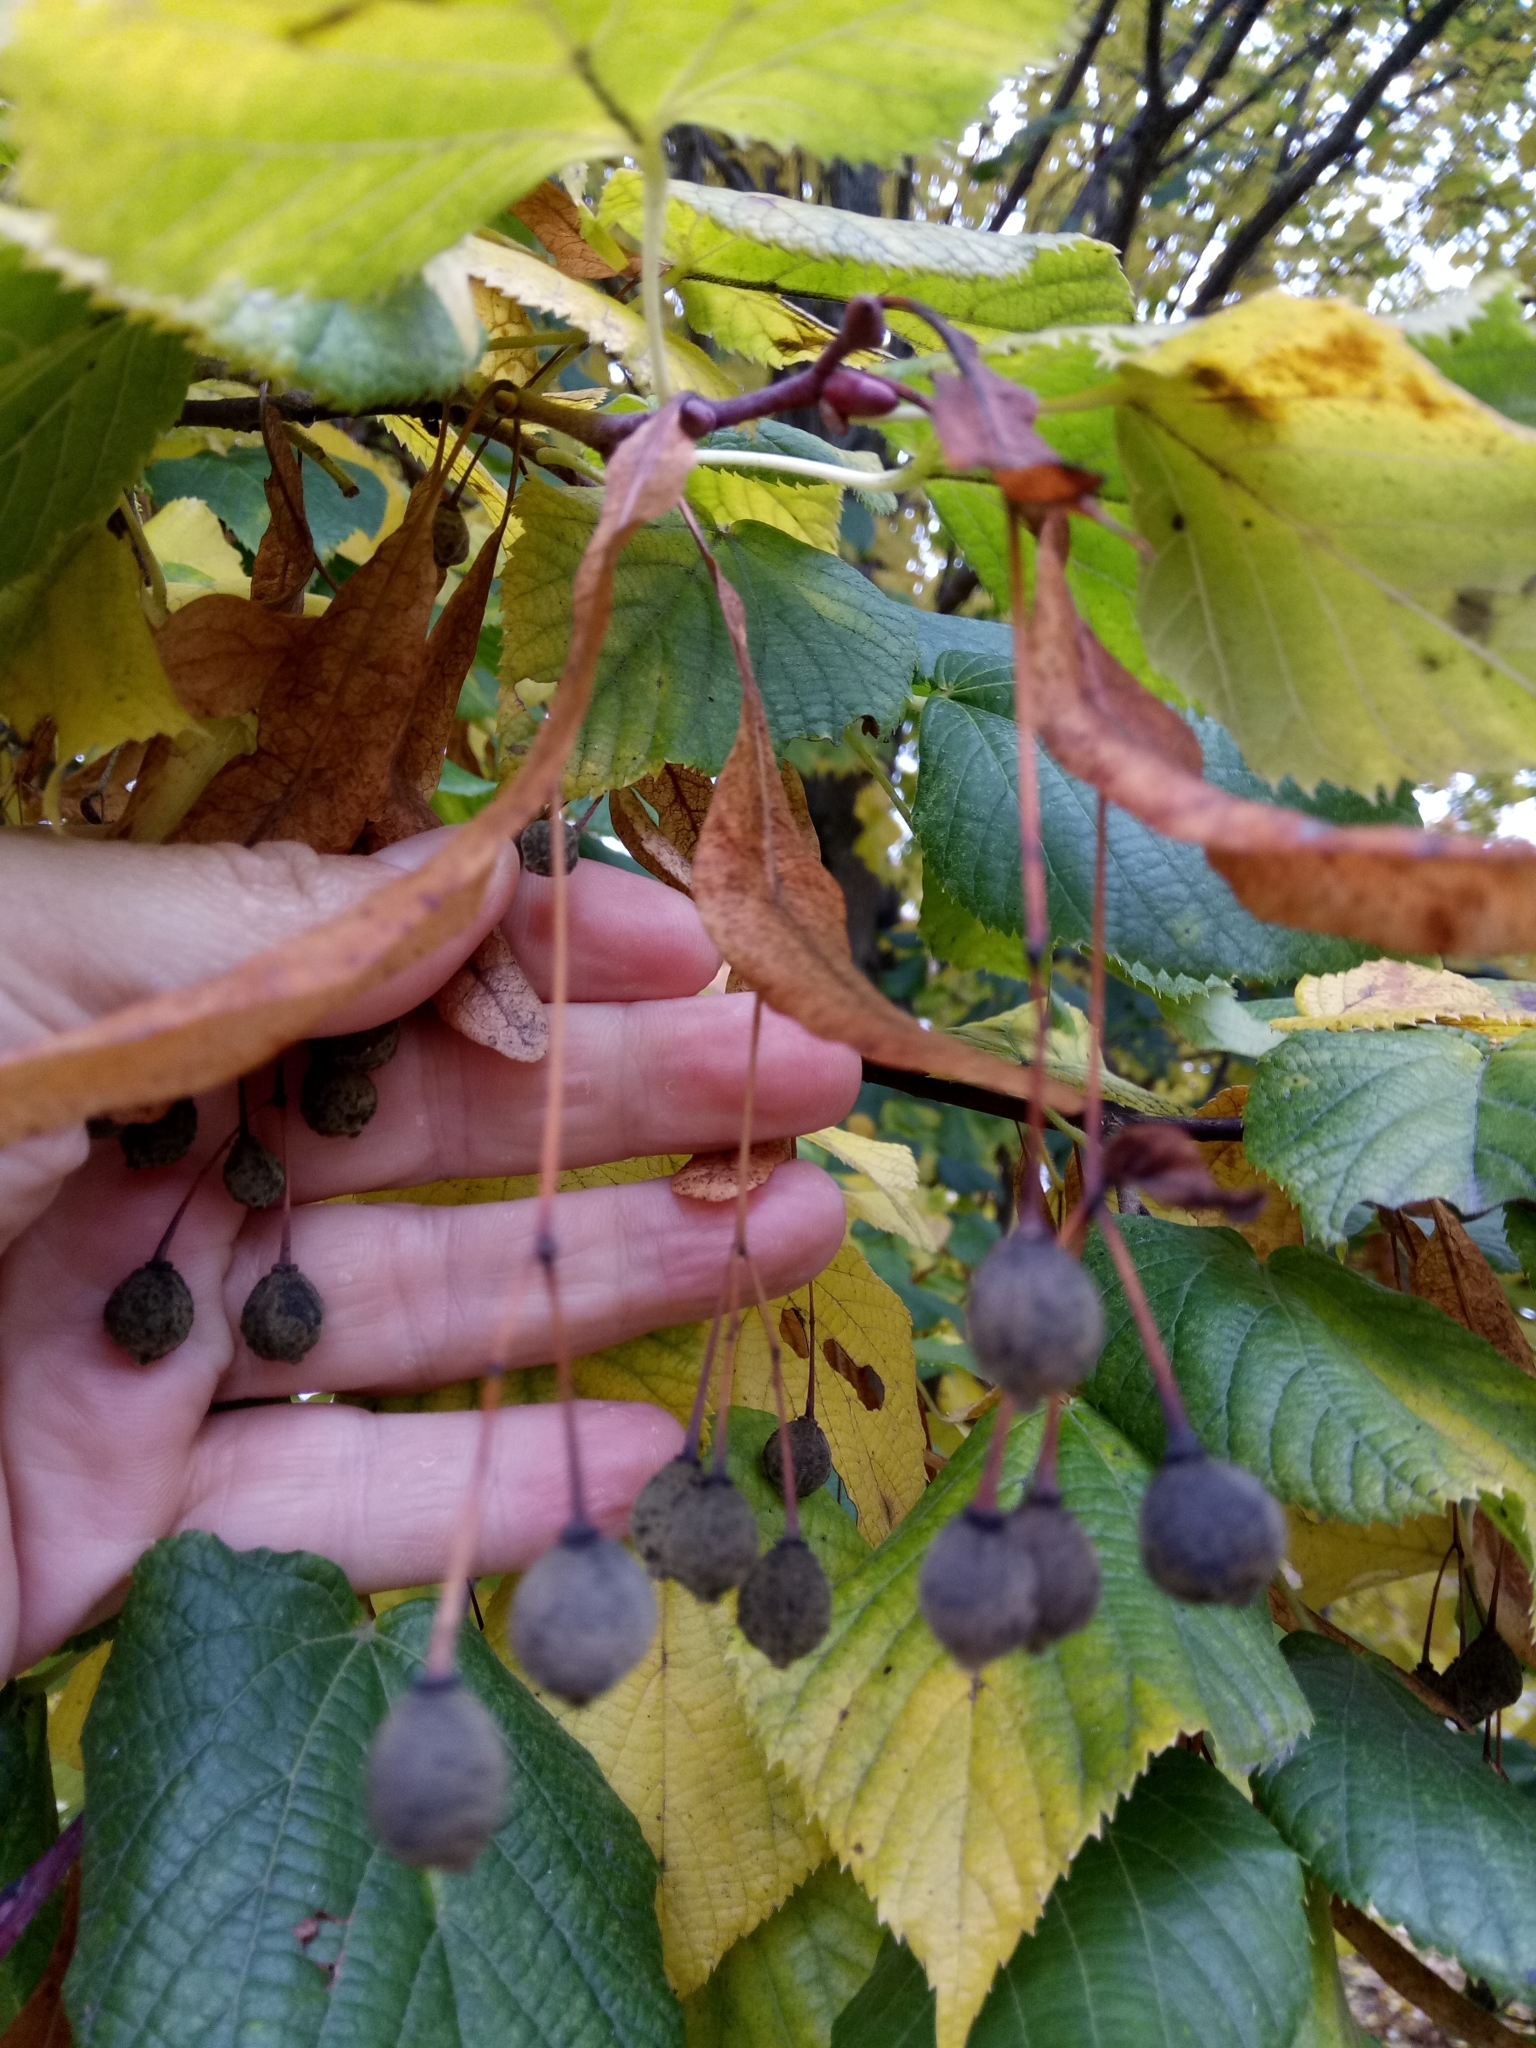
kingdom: Plantae
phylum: Tracheophyta
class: Magnoliopsida
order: Fagales
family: Betulaceae
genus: Corylus
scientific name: Corylus avellana
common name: European hazel
